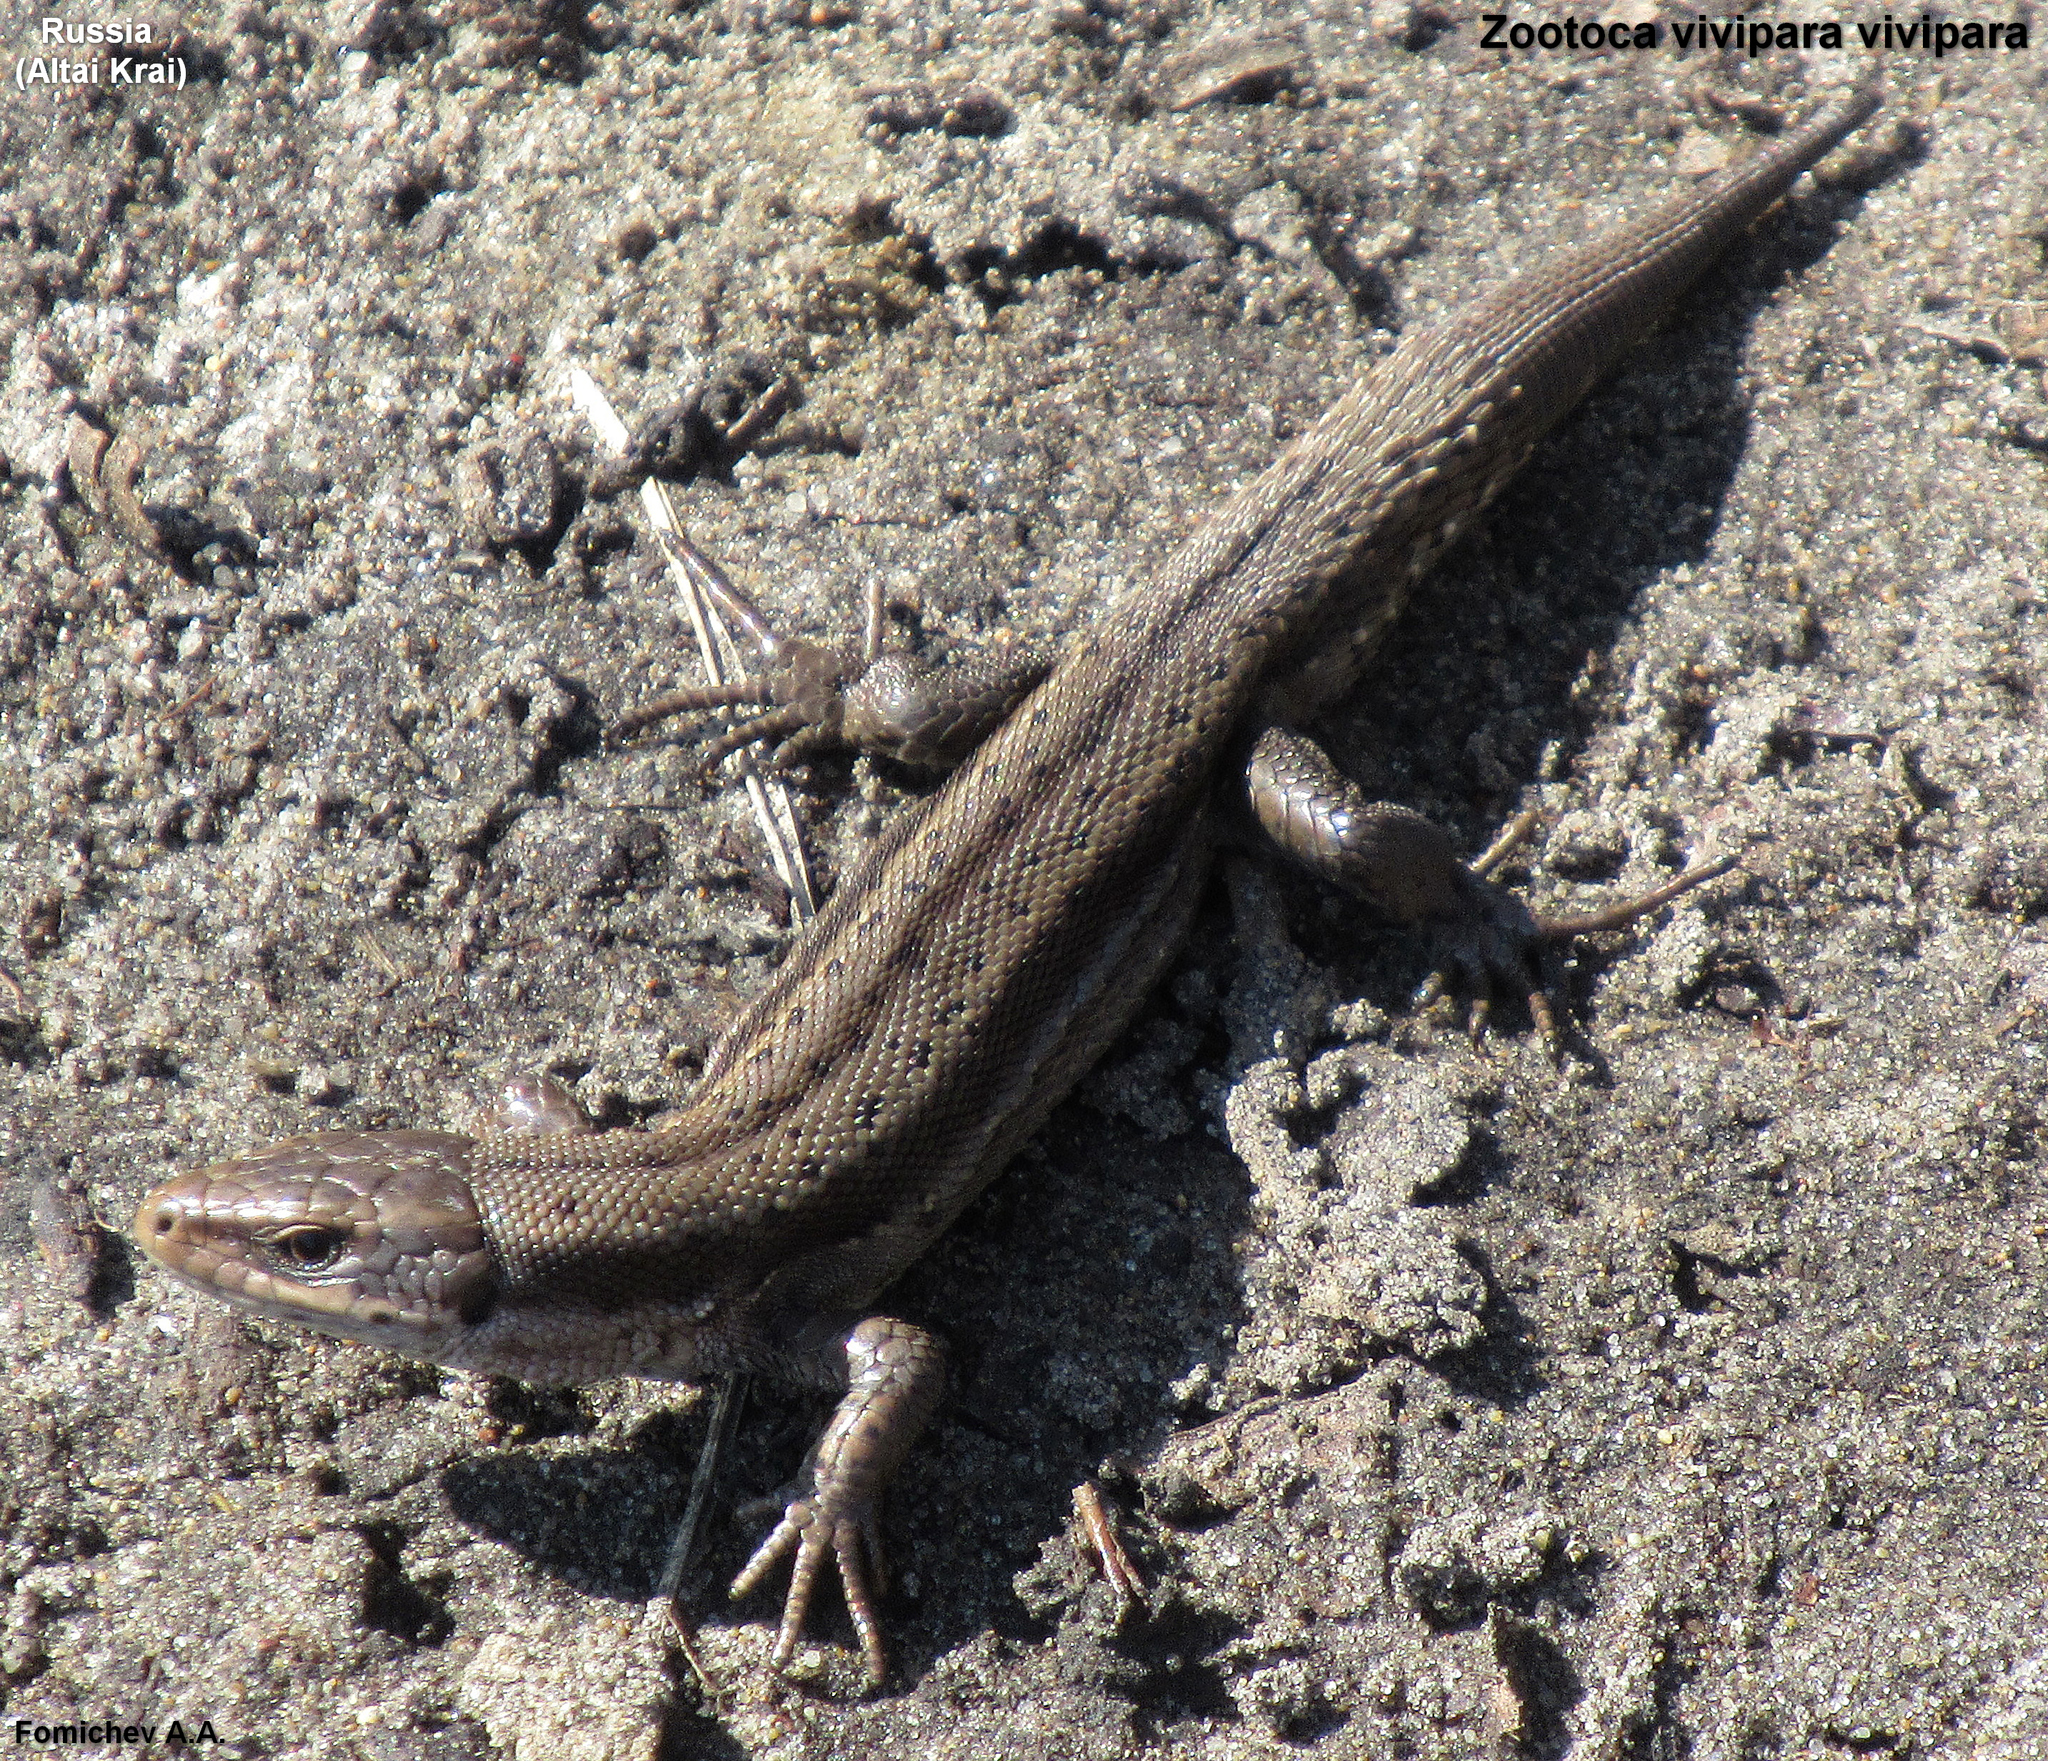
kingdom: Animalia
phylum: Chordata
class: Squamata
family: Lacertidae
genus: Zootoca
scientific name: Zootoca vivipara
